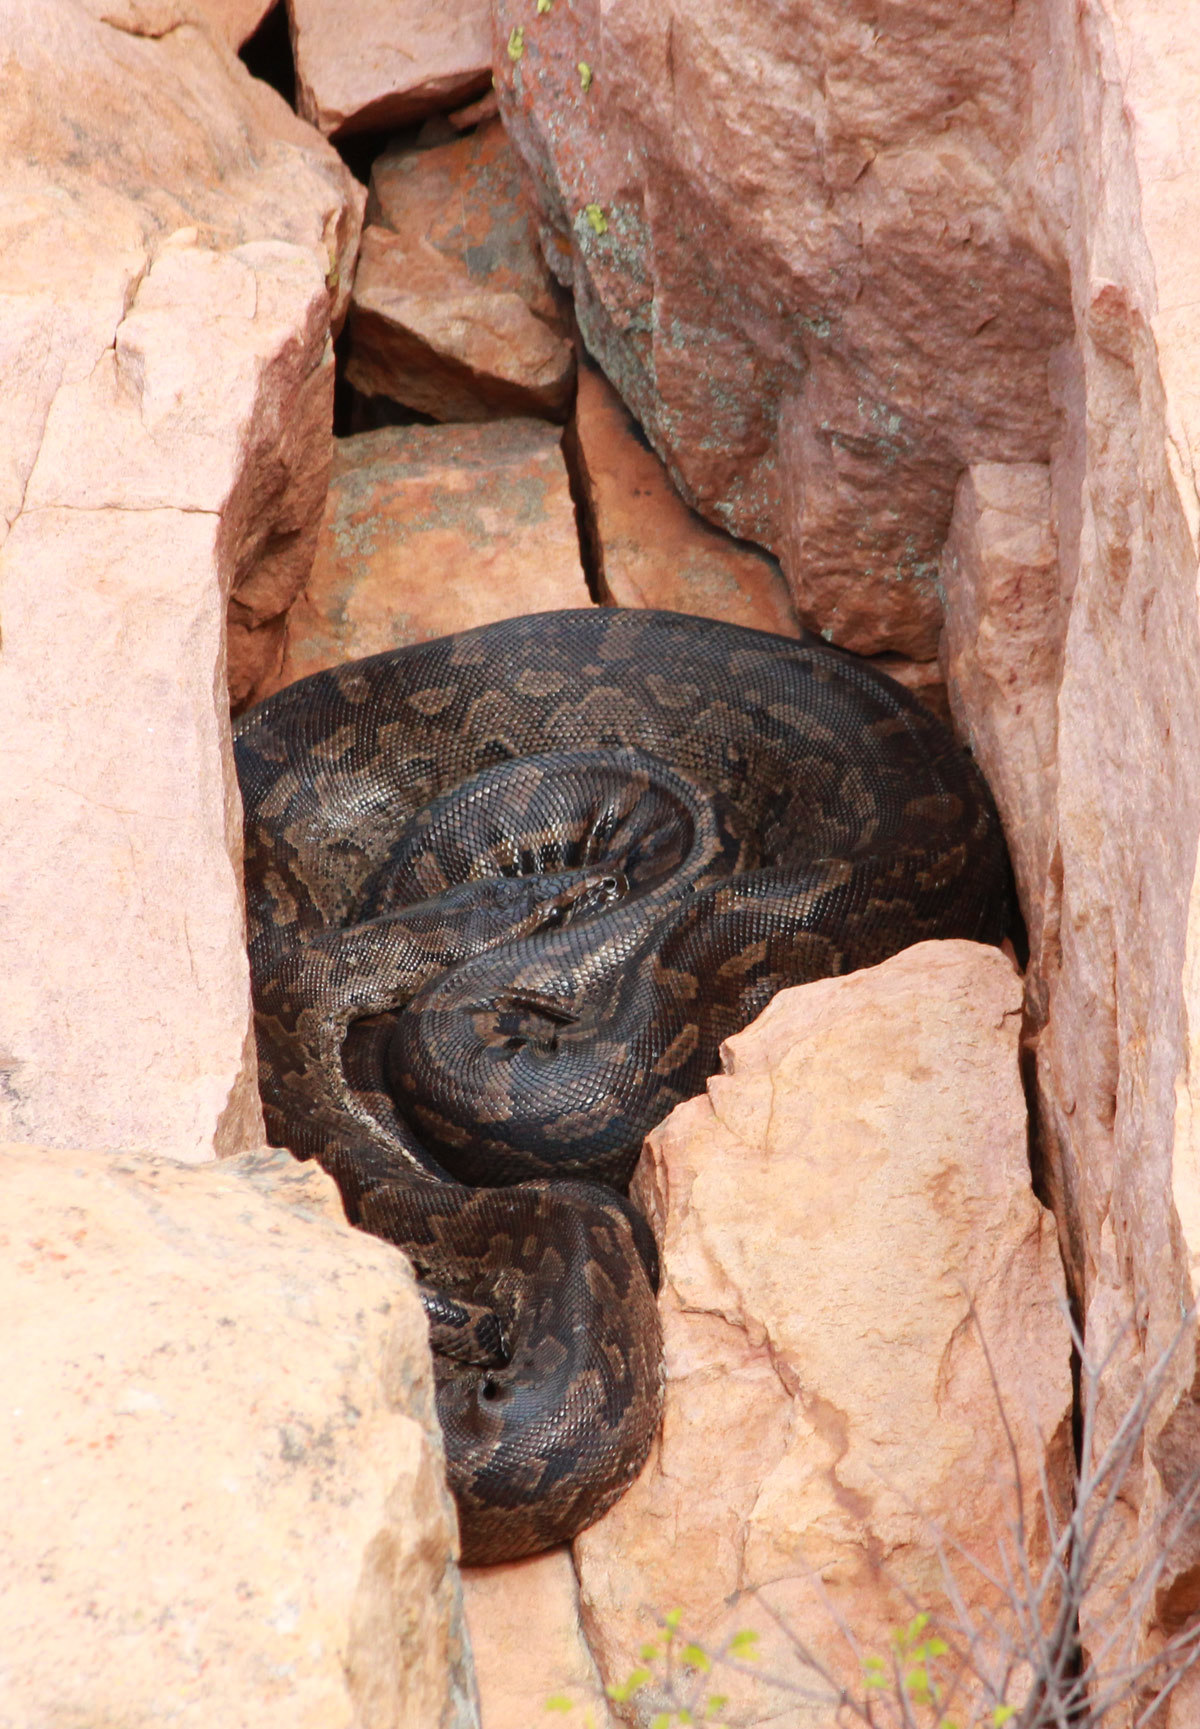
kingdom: Animalia
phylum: Chordata
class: Squamata
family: Pythonidae
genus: Python
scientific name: Python natalensis
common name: Southern african rock python
